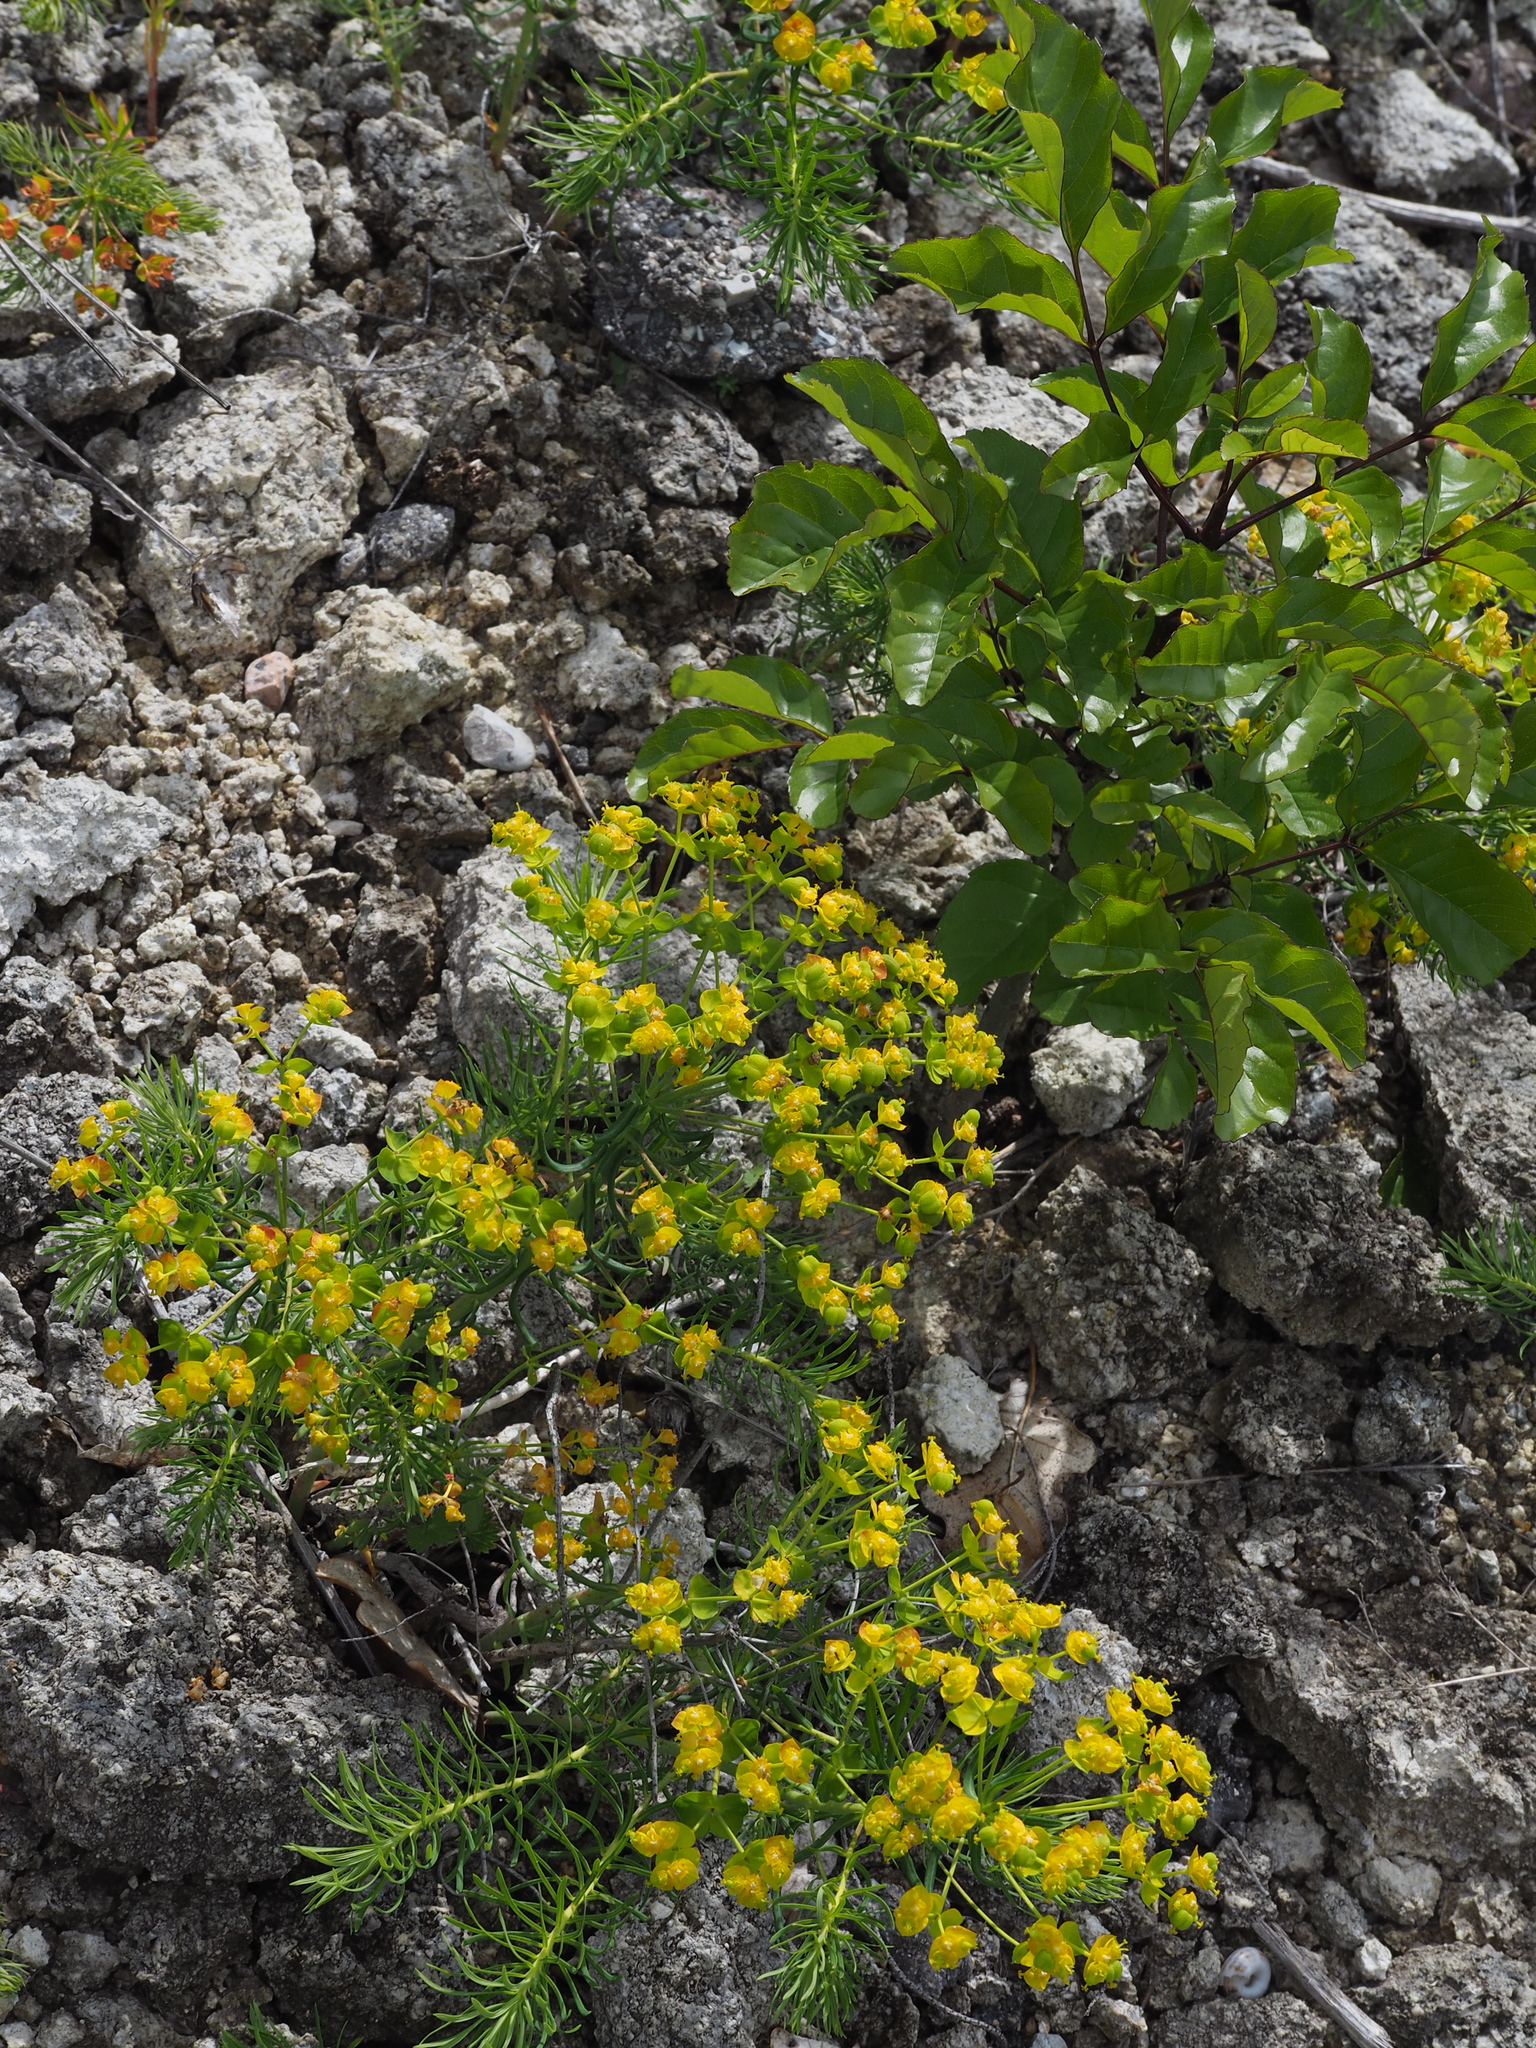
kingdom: Plantae
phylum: Tracheophyta
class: Magnoliopsida
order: Malpighiales
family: Euphorbiaceae
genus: Euphorbia
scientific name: Euphorbia cyparissias
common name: Cypress spurge
